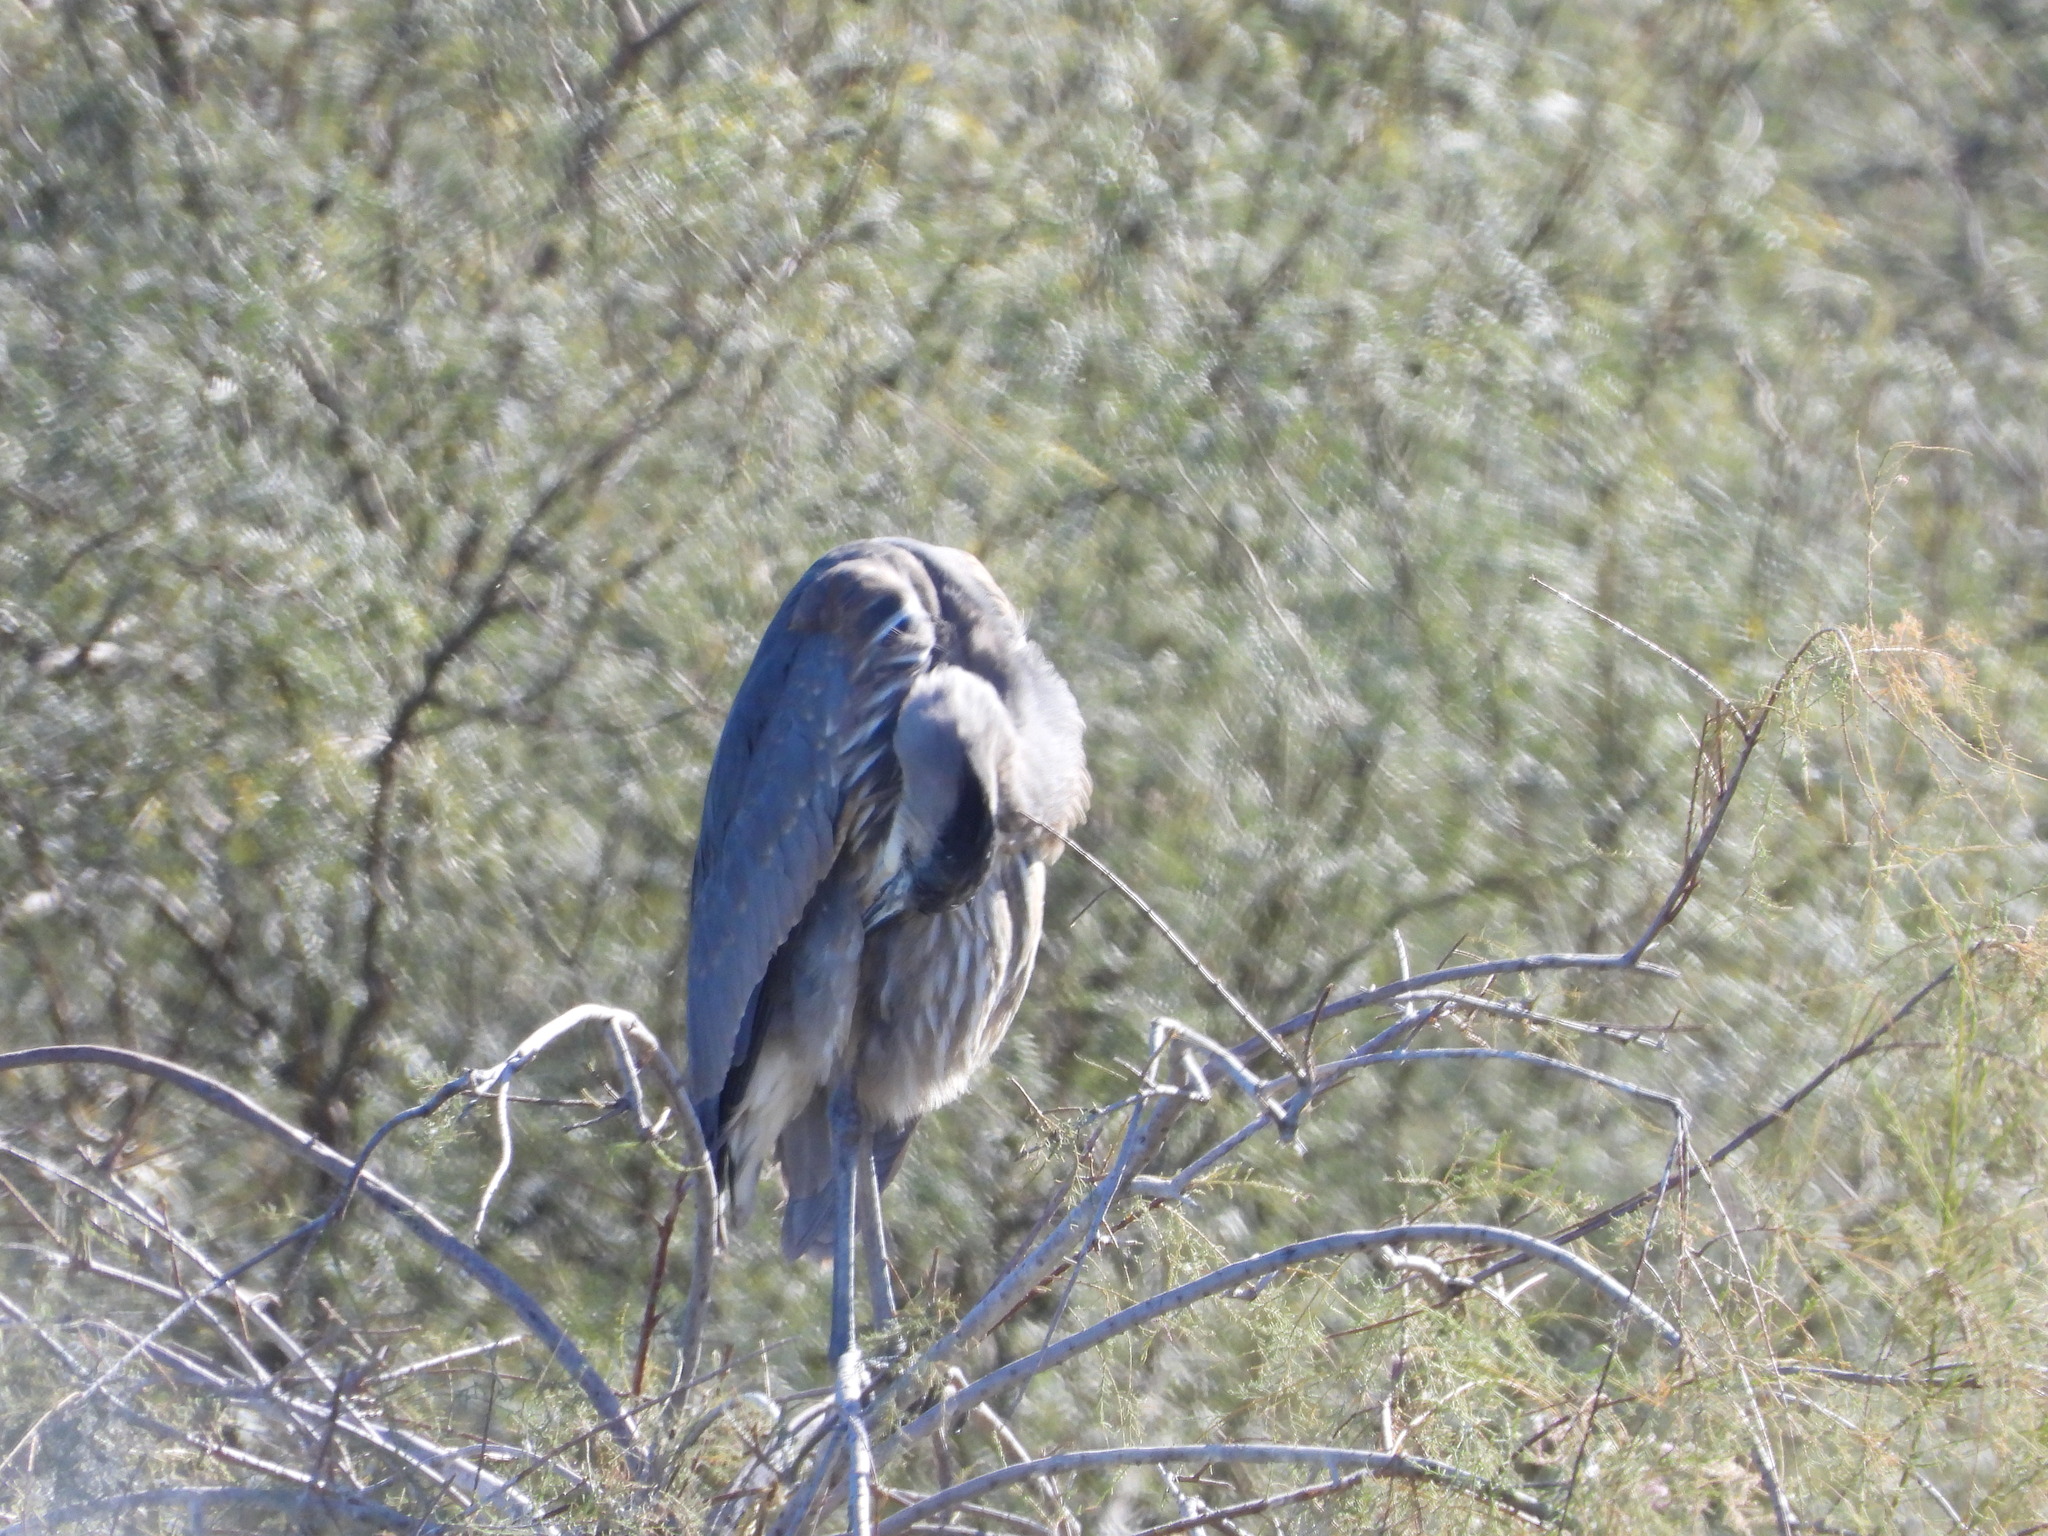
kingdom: Animalia
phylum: Chordata
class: Aves
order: Pelecaniformes
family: Ardeidae
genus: Ardea
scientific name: Ardea herodias
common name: Great blue heron
